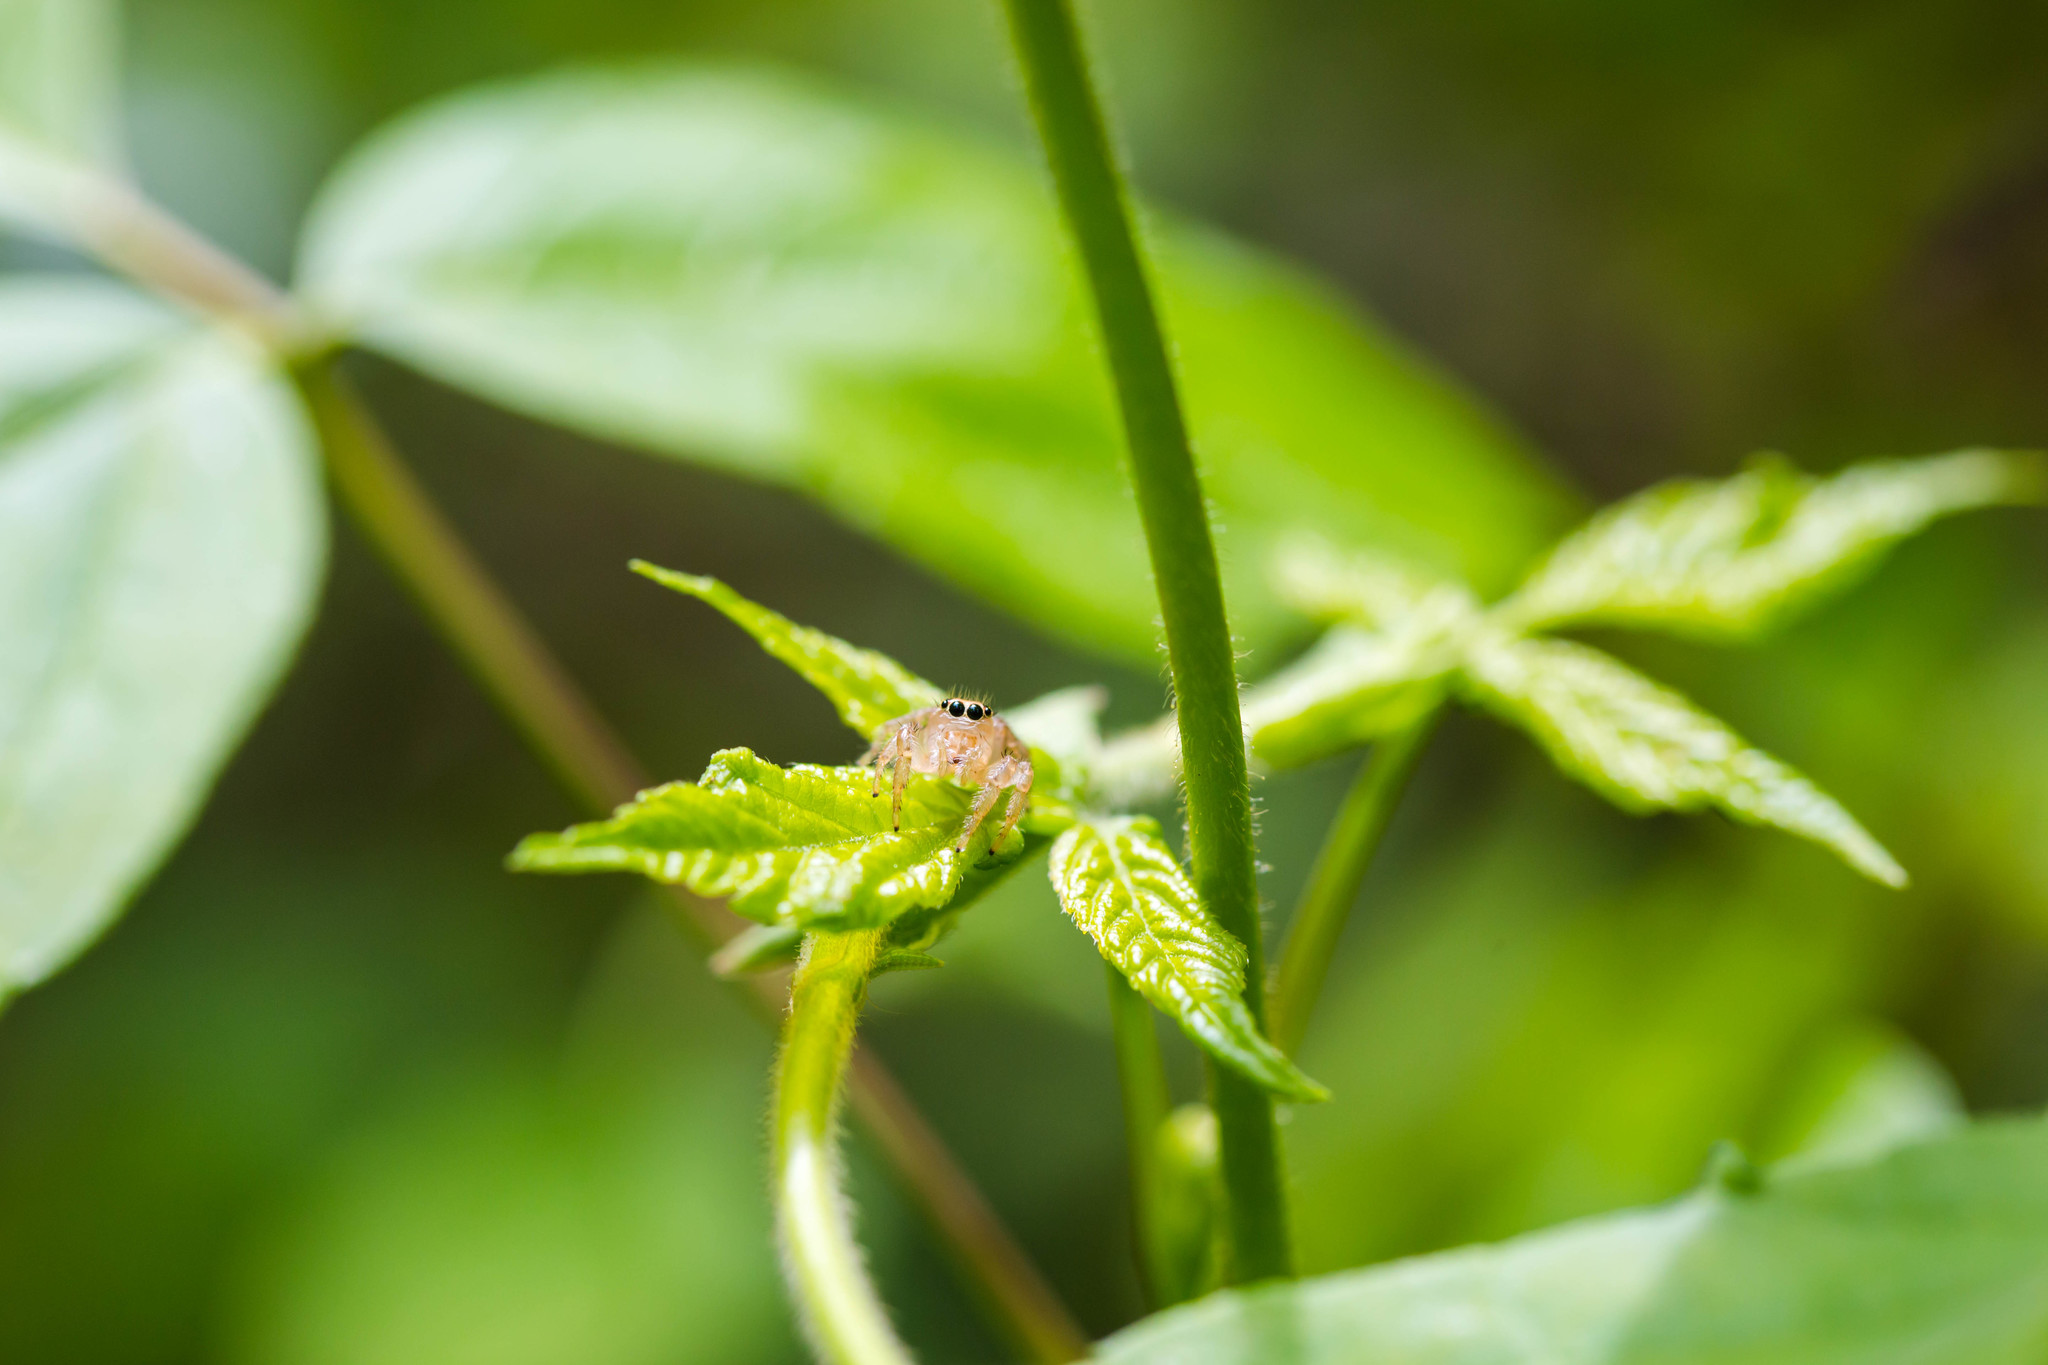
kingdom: Animalia
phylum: Arthropoda
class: Arachnida
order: Araneae
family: Salticidae
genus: Colonus
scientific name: Colonus sylvanus
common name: Jumping spiders
